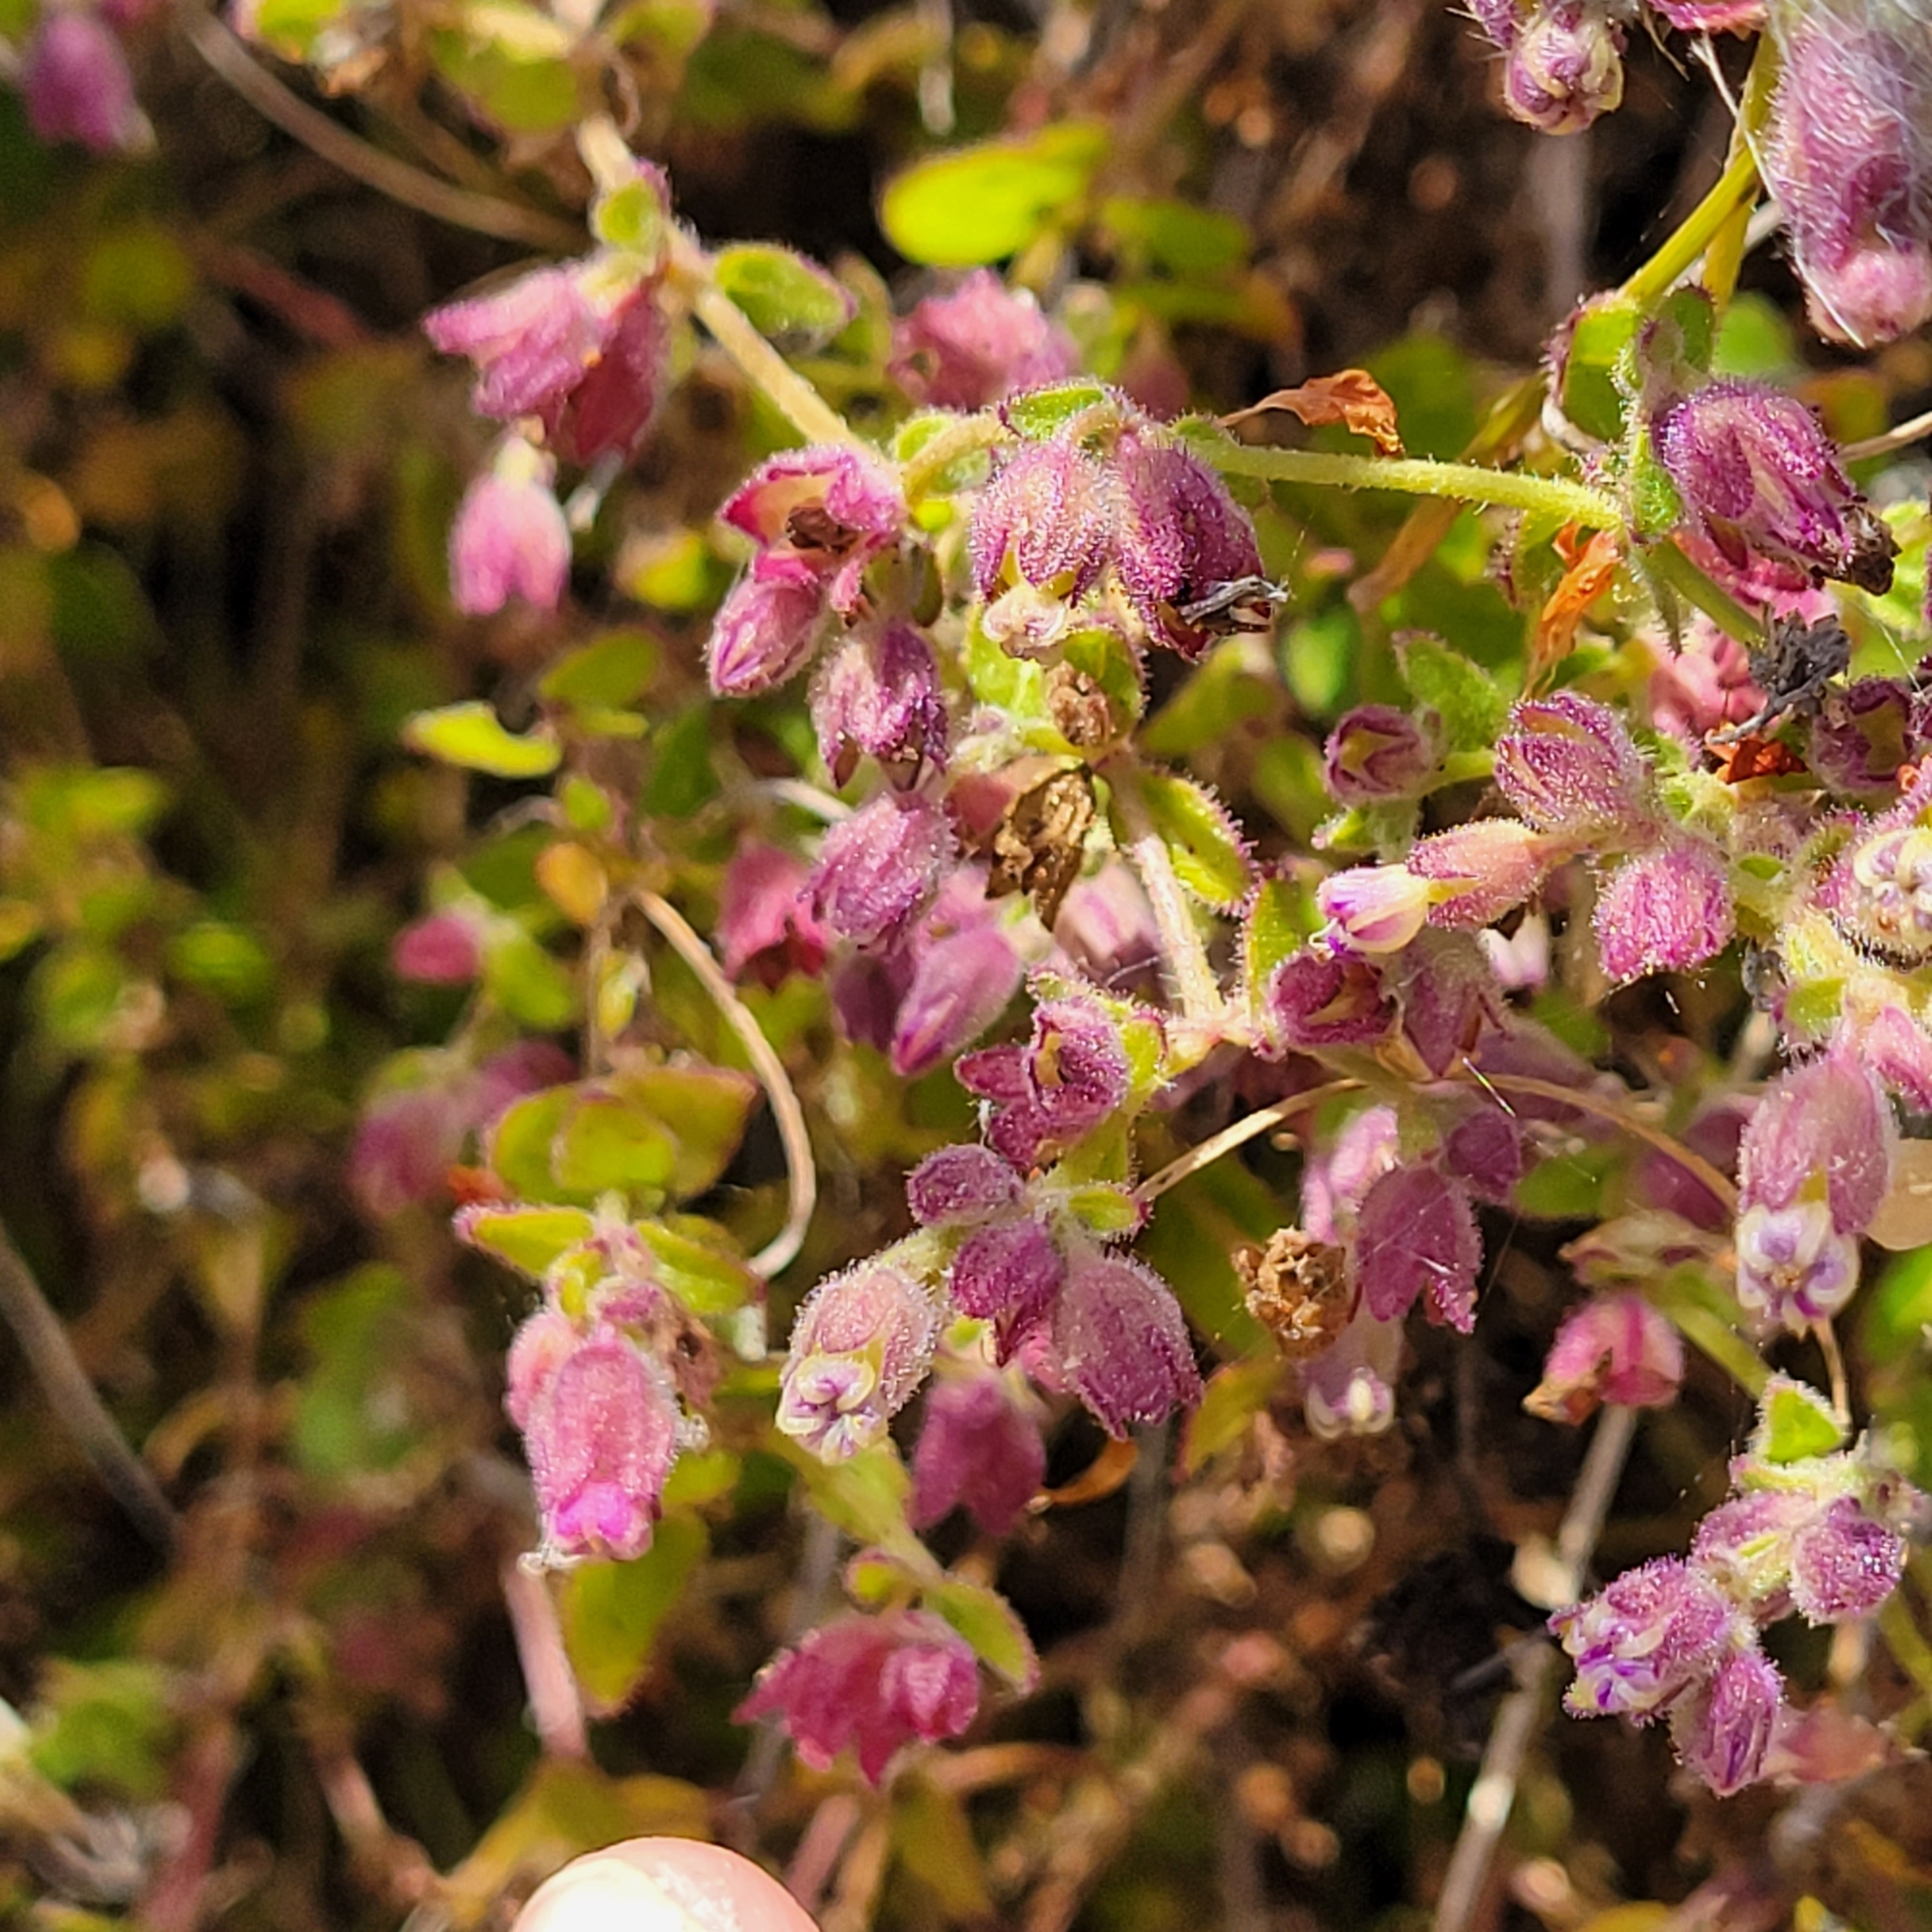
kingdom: Plantae
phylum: Tracheophyta
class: Magnoliopsida
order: Caryophyllales
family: Nyctaginaceae
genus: Mirabilis
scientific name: Mirabilis laevis
